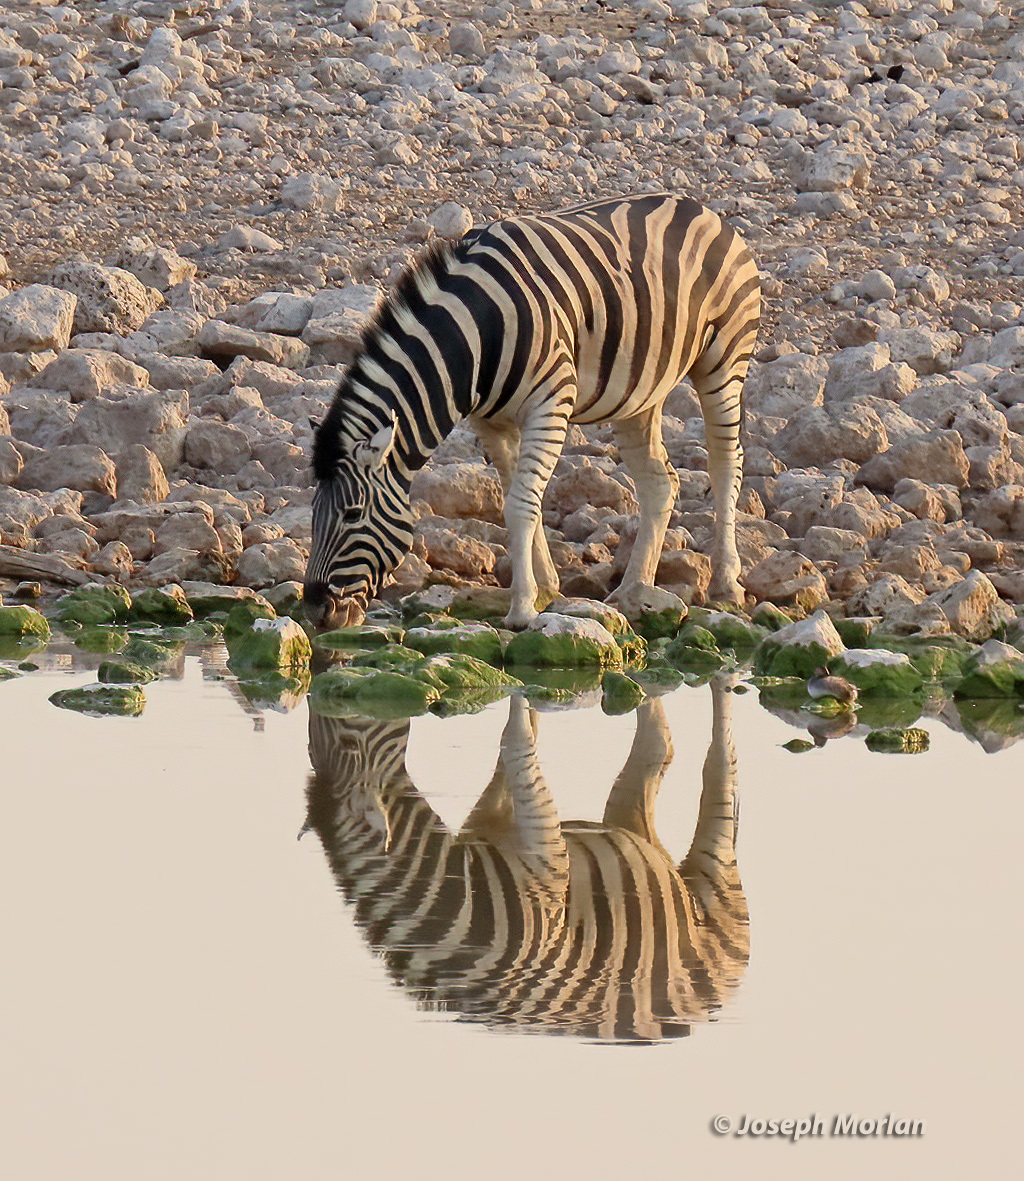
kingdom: Animalia
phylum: Chordata
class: Mammalia
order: Perissodactyla
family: Equidae
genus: Equus
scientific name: Equus quagga
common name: Plains zebra
